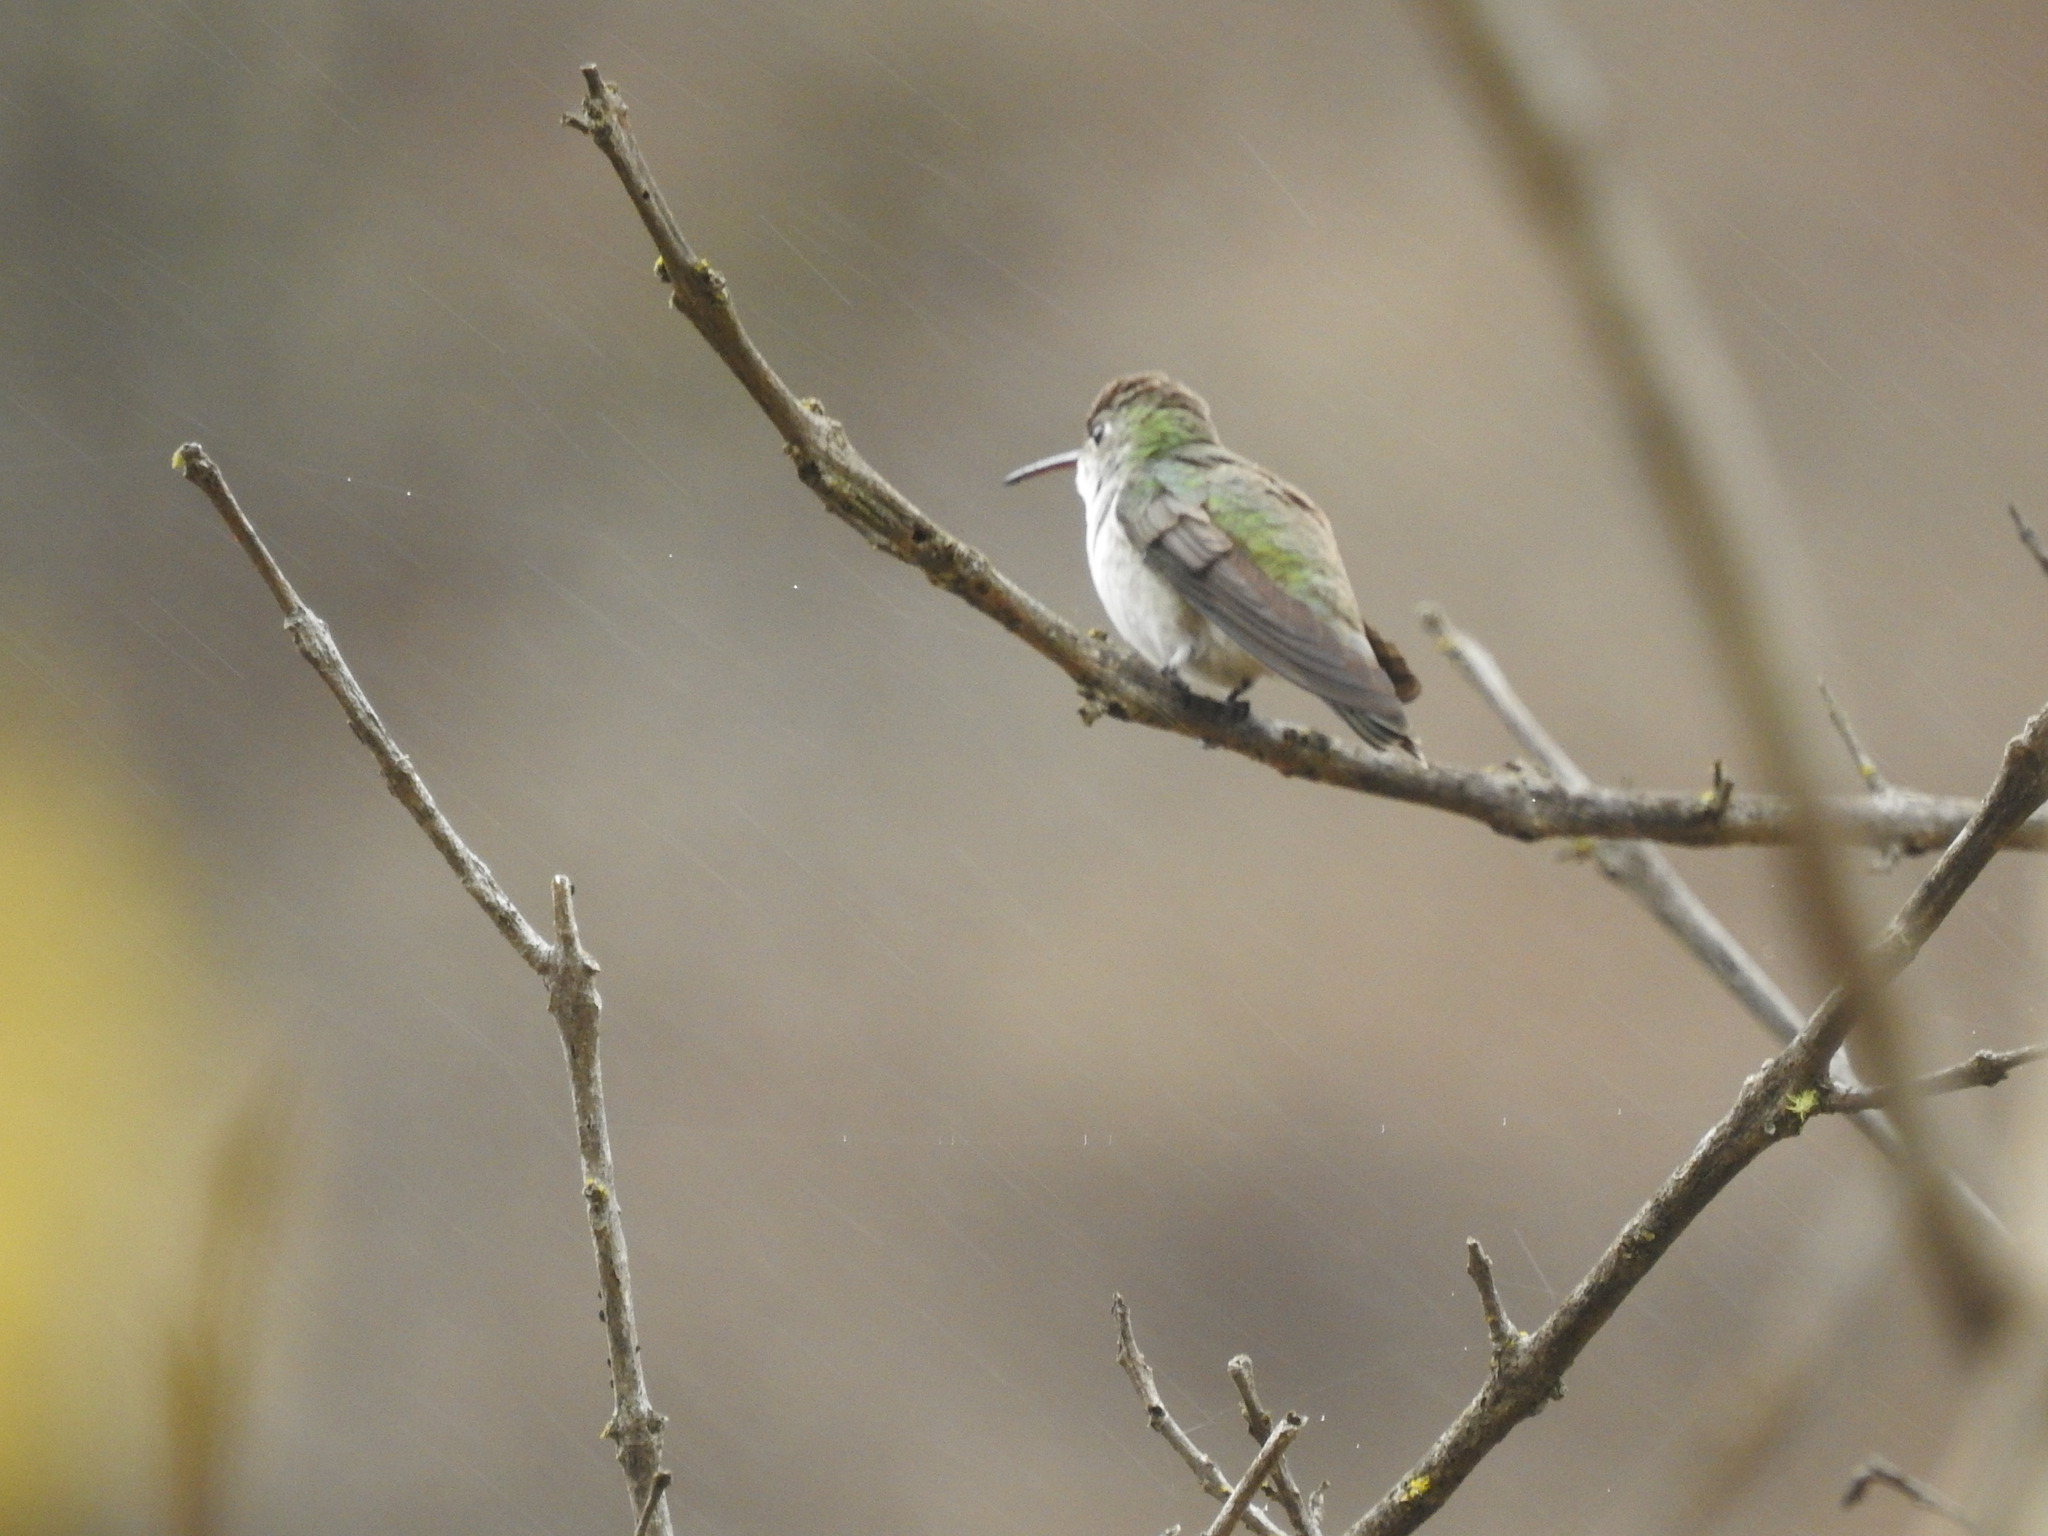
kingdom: Animalia
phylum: Chordata
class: Aves
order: Apodiformes
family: Trochilidae
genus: Elliotomyia
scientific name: Elliotomyia chionogaster
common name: White-bellied hummingbird
